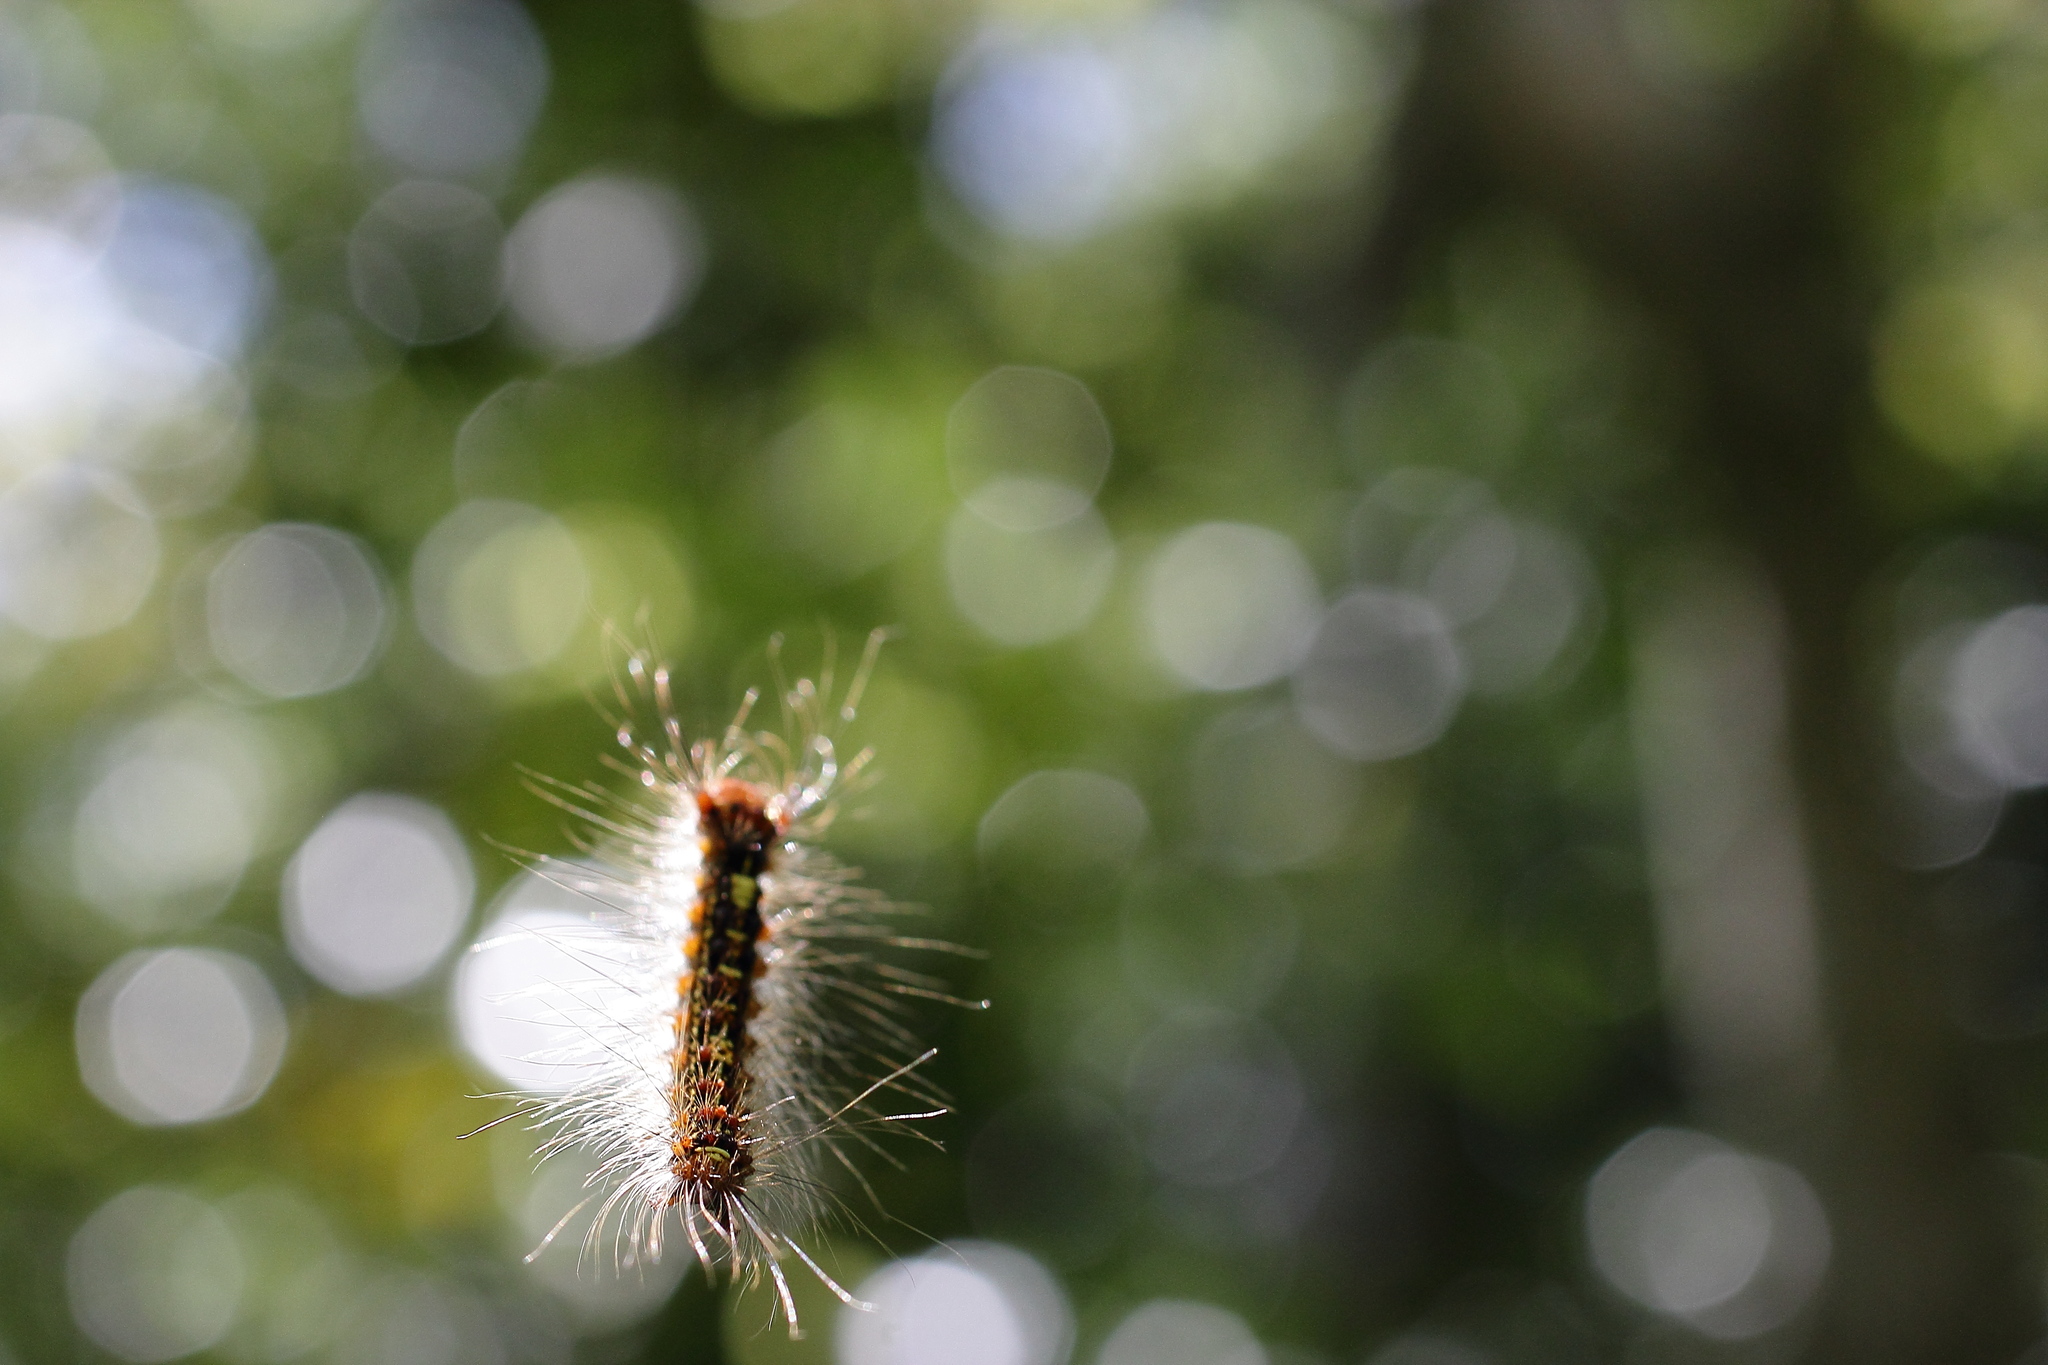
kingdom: Animalia
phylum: Arthropoda
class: Insecta
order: Lepidoptera
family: Erebidae
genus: Lymantria
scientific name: Lymantria dispar
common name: Gypsy moth
